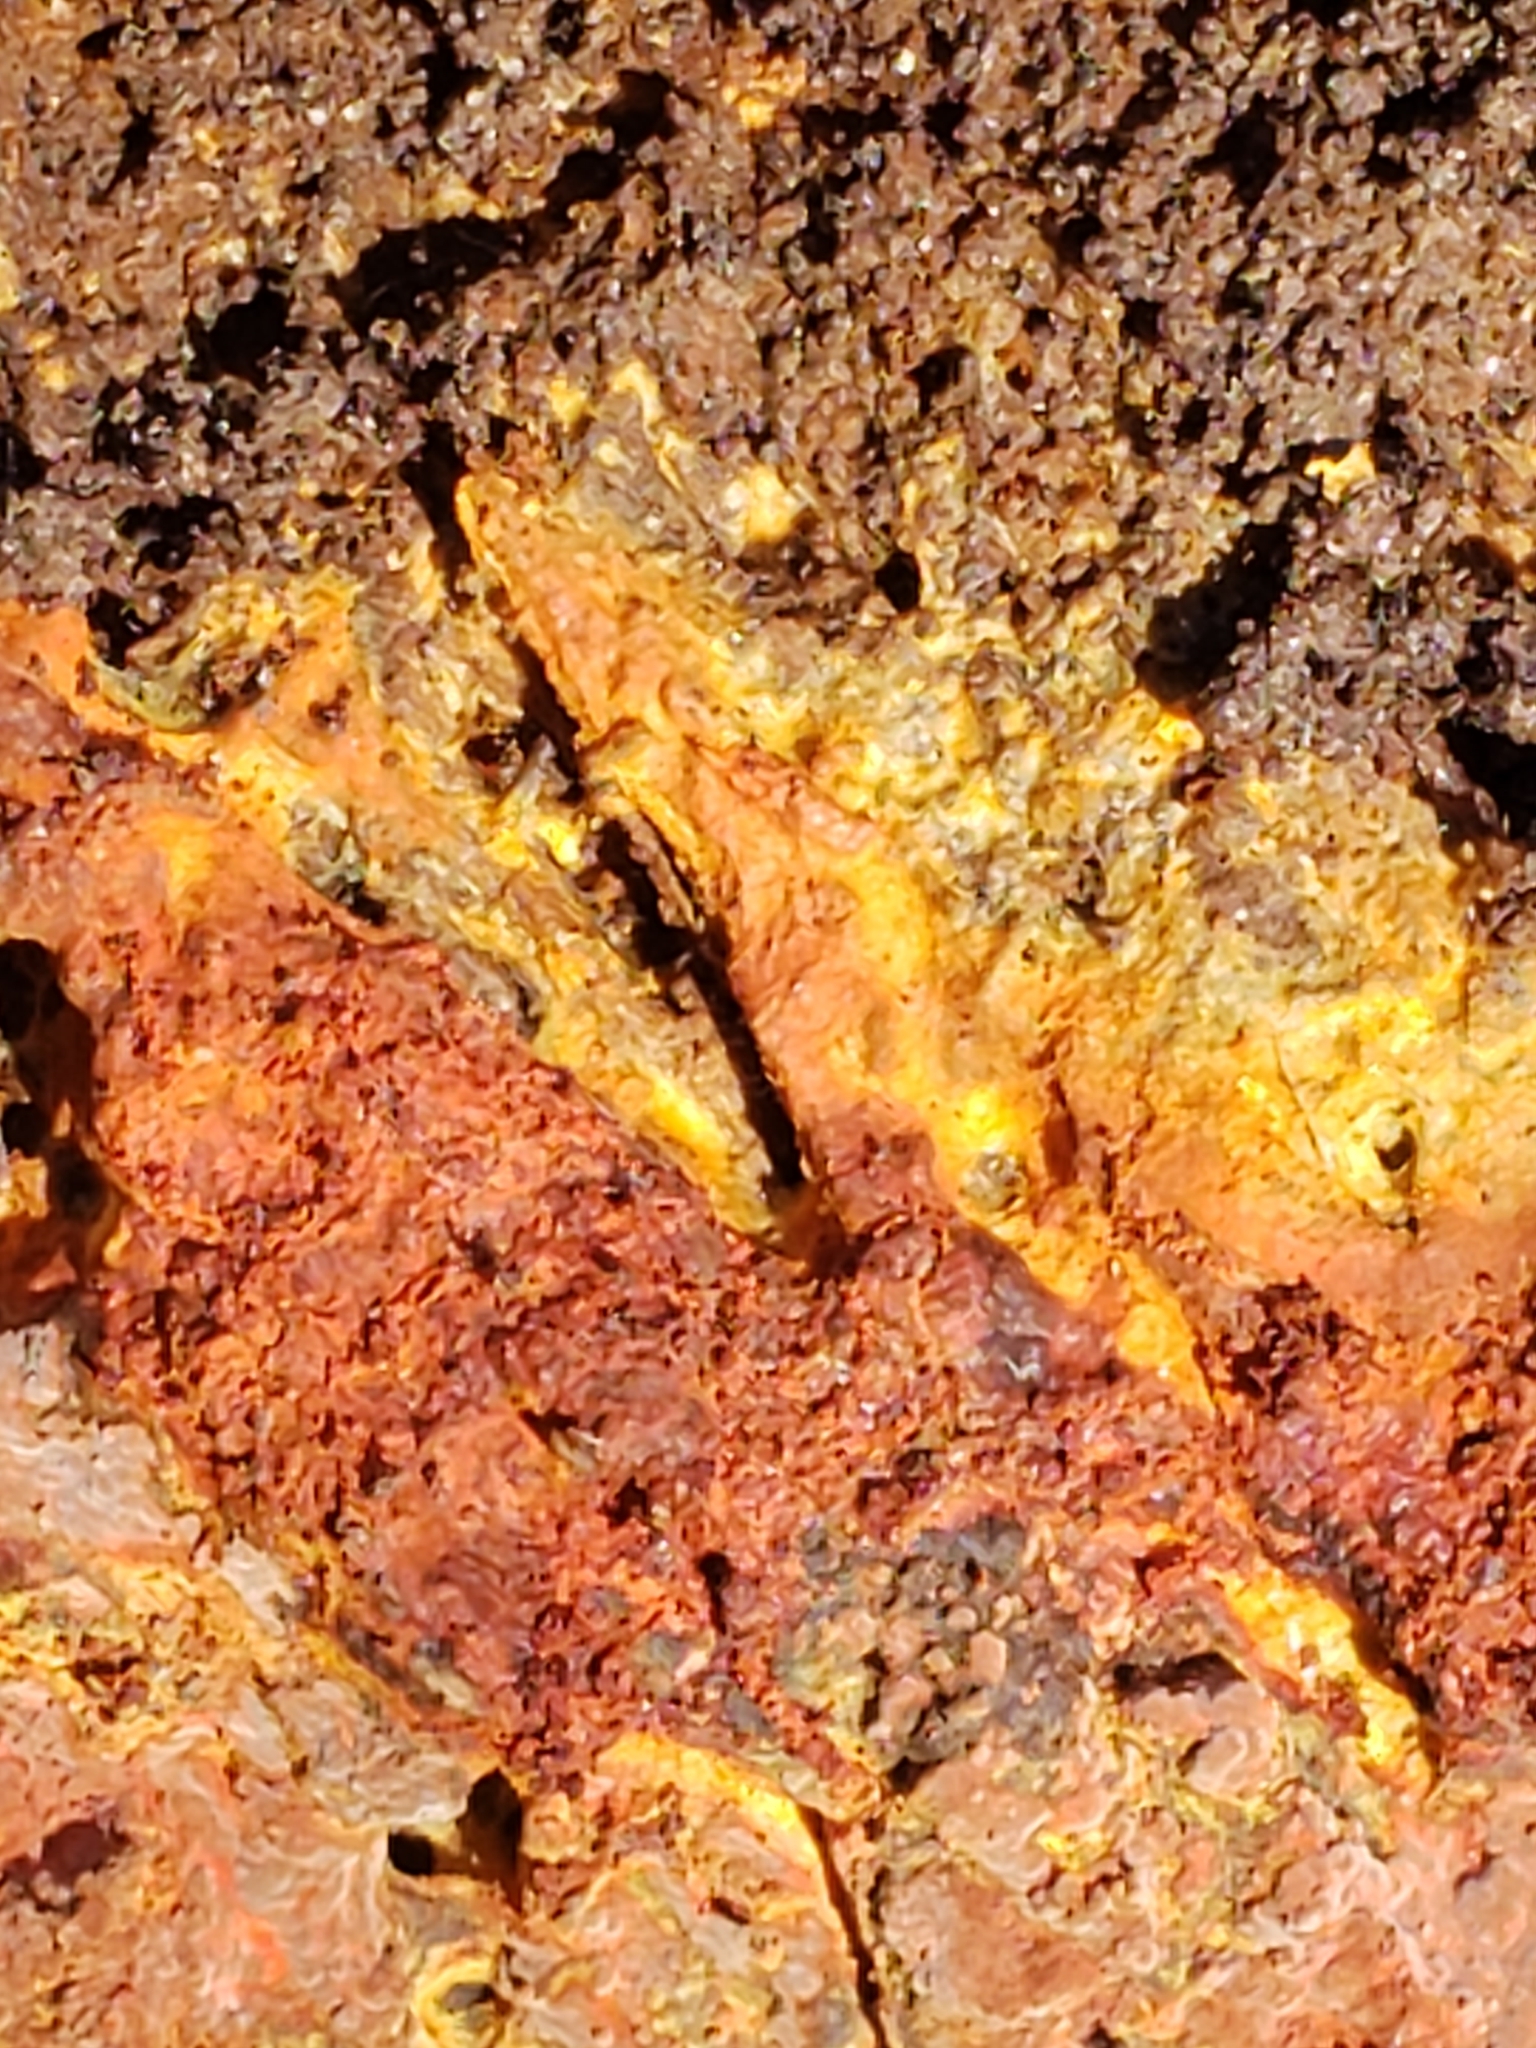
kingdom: Fungi
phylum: Basidiomycota
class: Agaricomycetes
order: Polyporales
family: Meruliaceae
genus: Phlebia
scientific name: Phlebia coccineofulva
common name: Scarlet waxcrust
